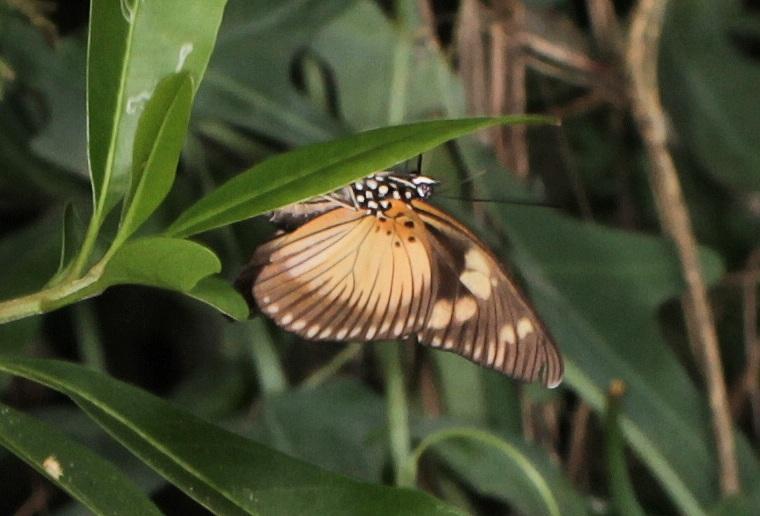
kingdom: Animalia
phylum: Arthropoda
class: Insecta
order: Lepidoptera
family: Nymphalidae
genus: Chloropoea
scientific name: Chloropoea lucretia
